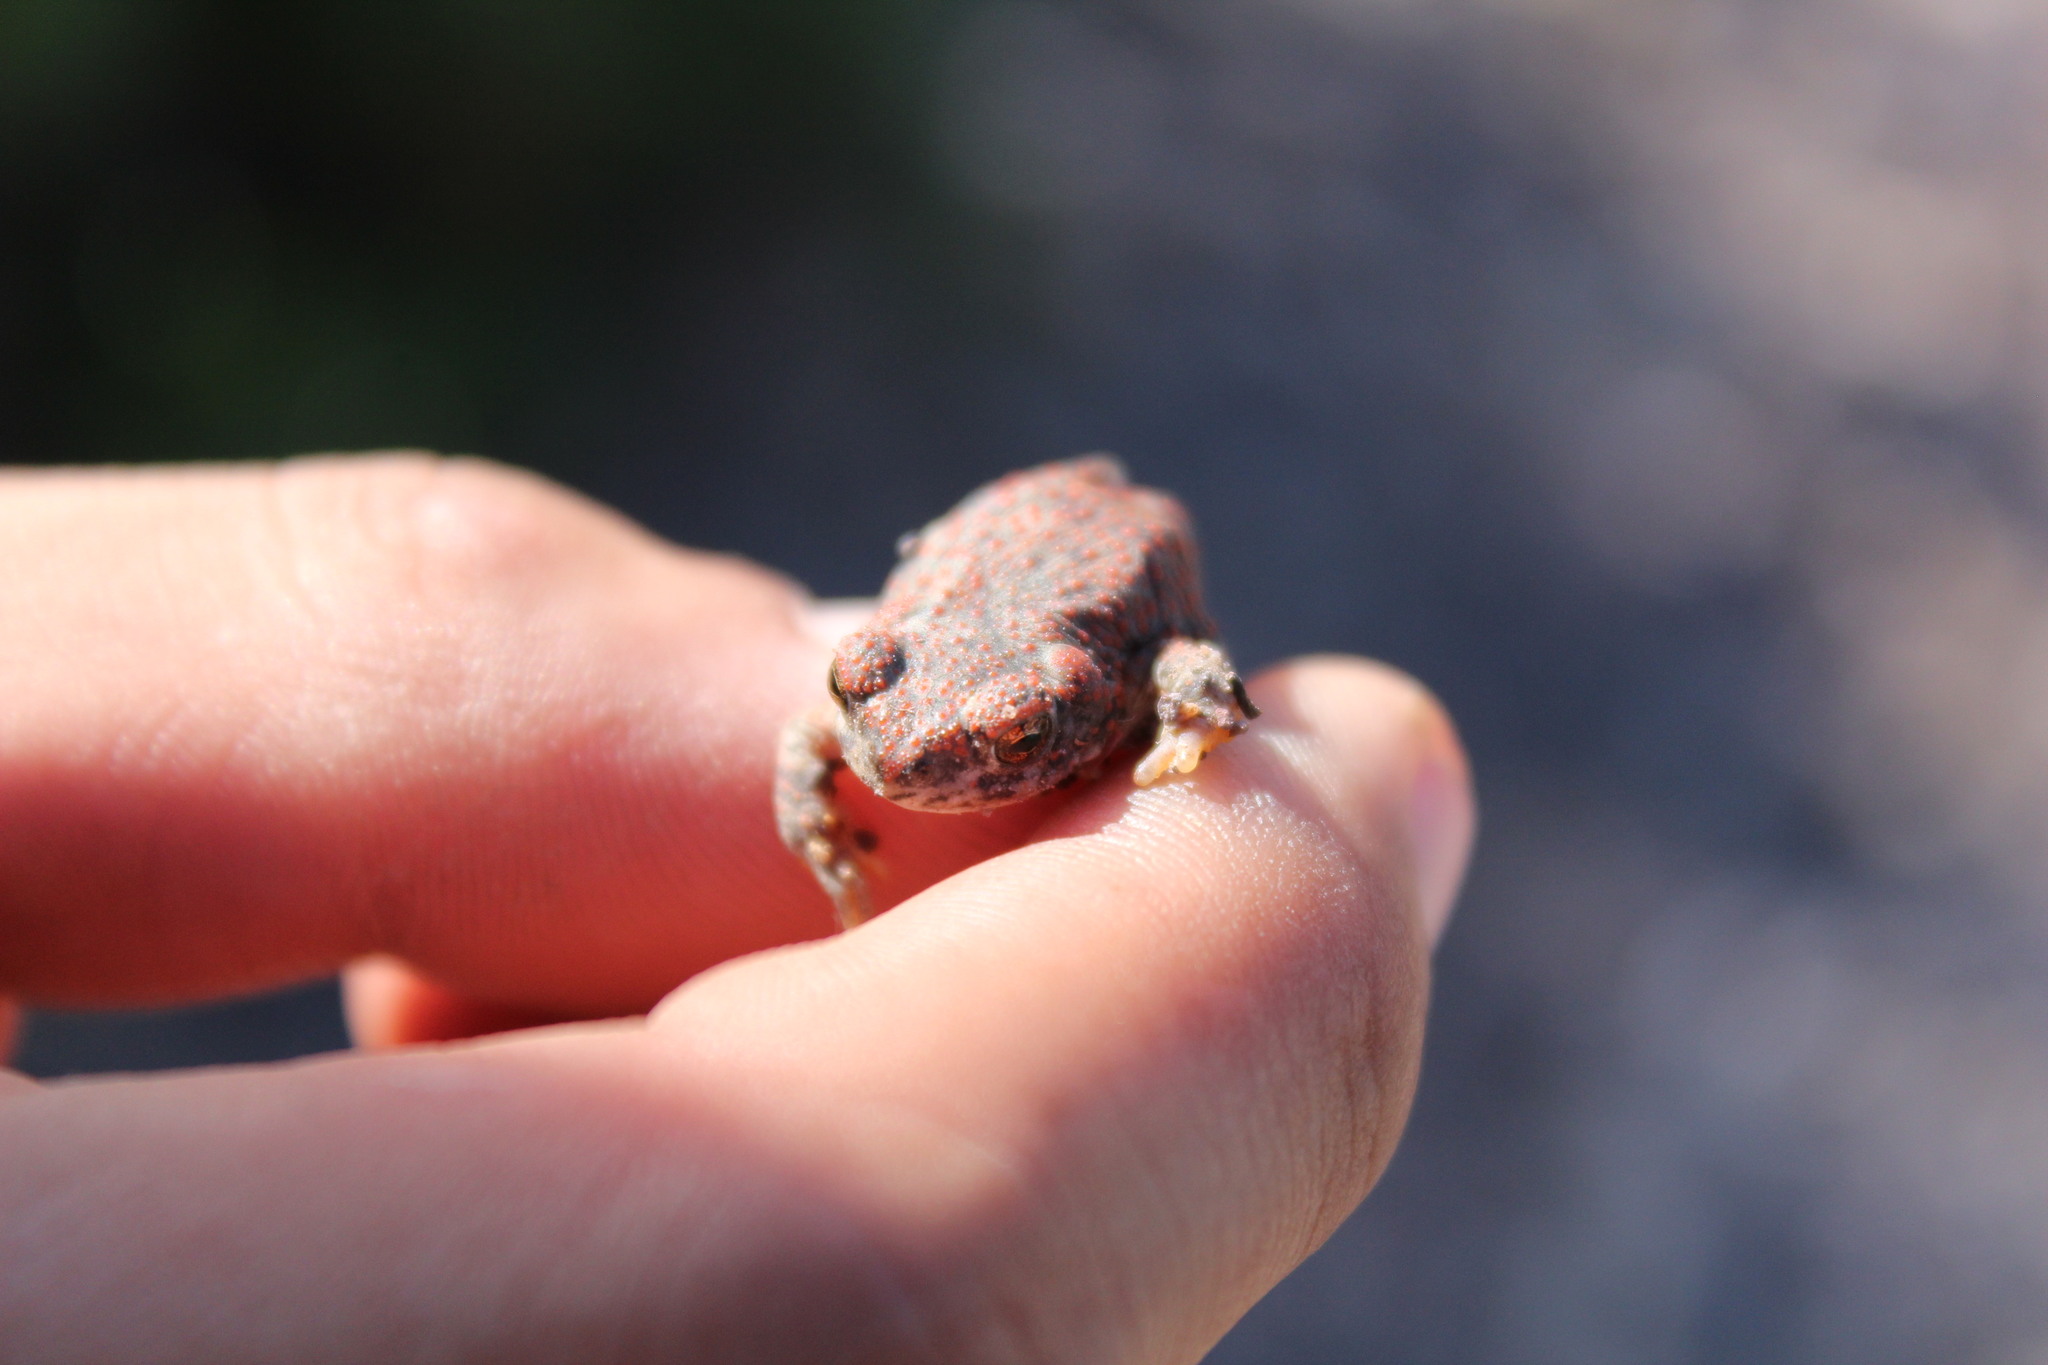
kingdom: Animalia
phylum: Chordata
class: Amphibia
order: Anura
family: Bufonidae
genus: Anaxyrus
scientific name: Anaxyrus punctatus
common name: Red-spotted toad
